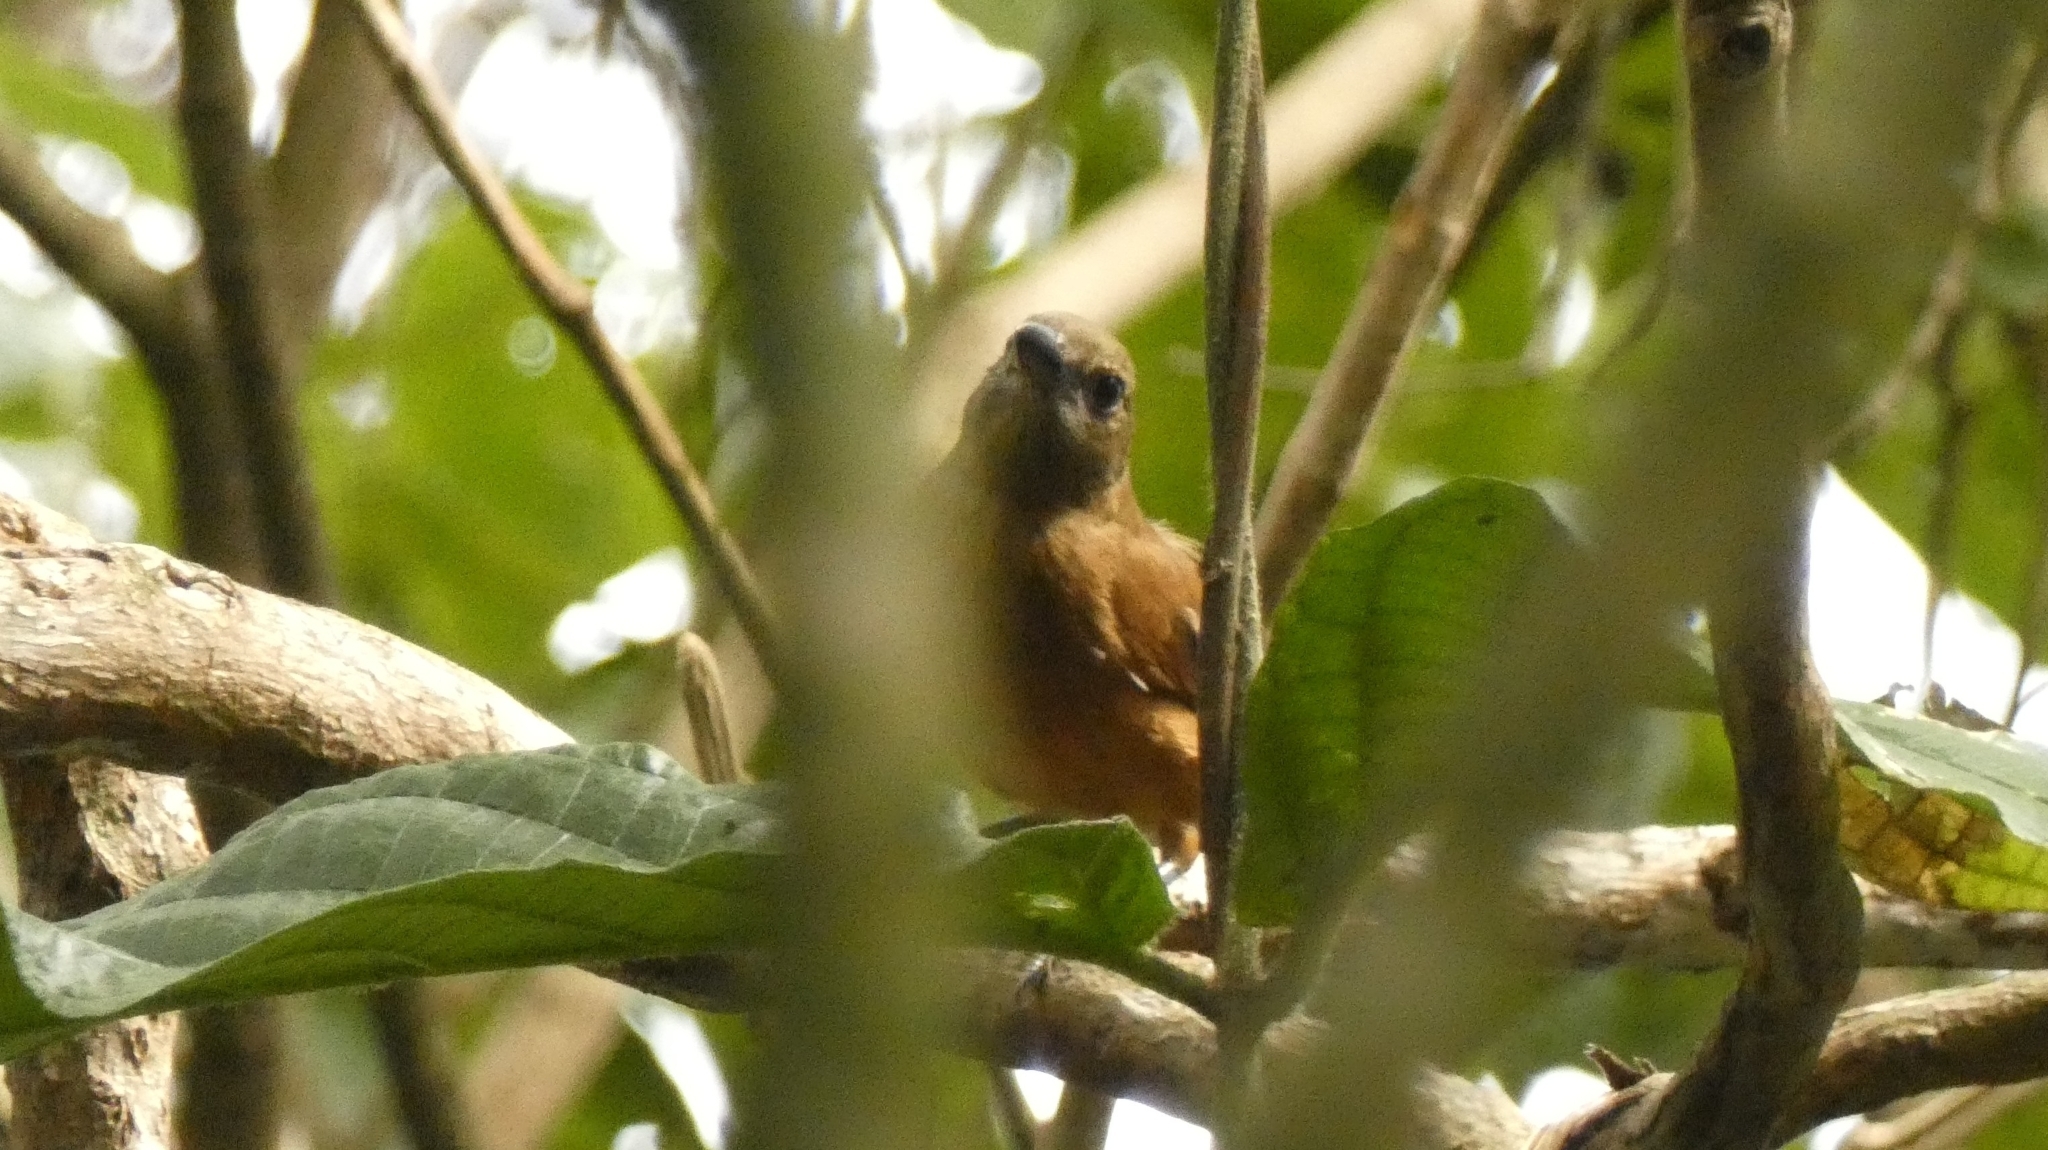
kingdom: Animalia
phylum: Chordata
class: Aves
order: Passeriformes
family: Thraupidae
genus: Tachyphonus
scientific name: Tachyphonus coronatus
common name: Ruby-crowned tanager
